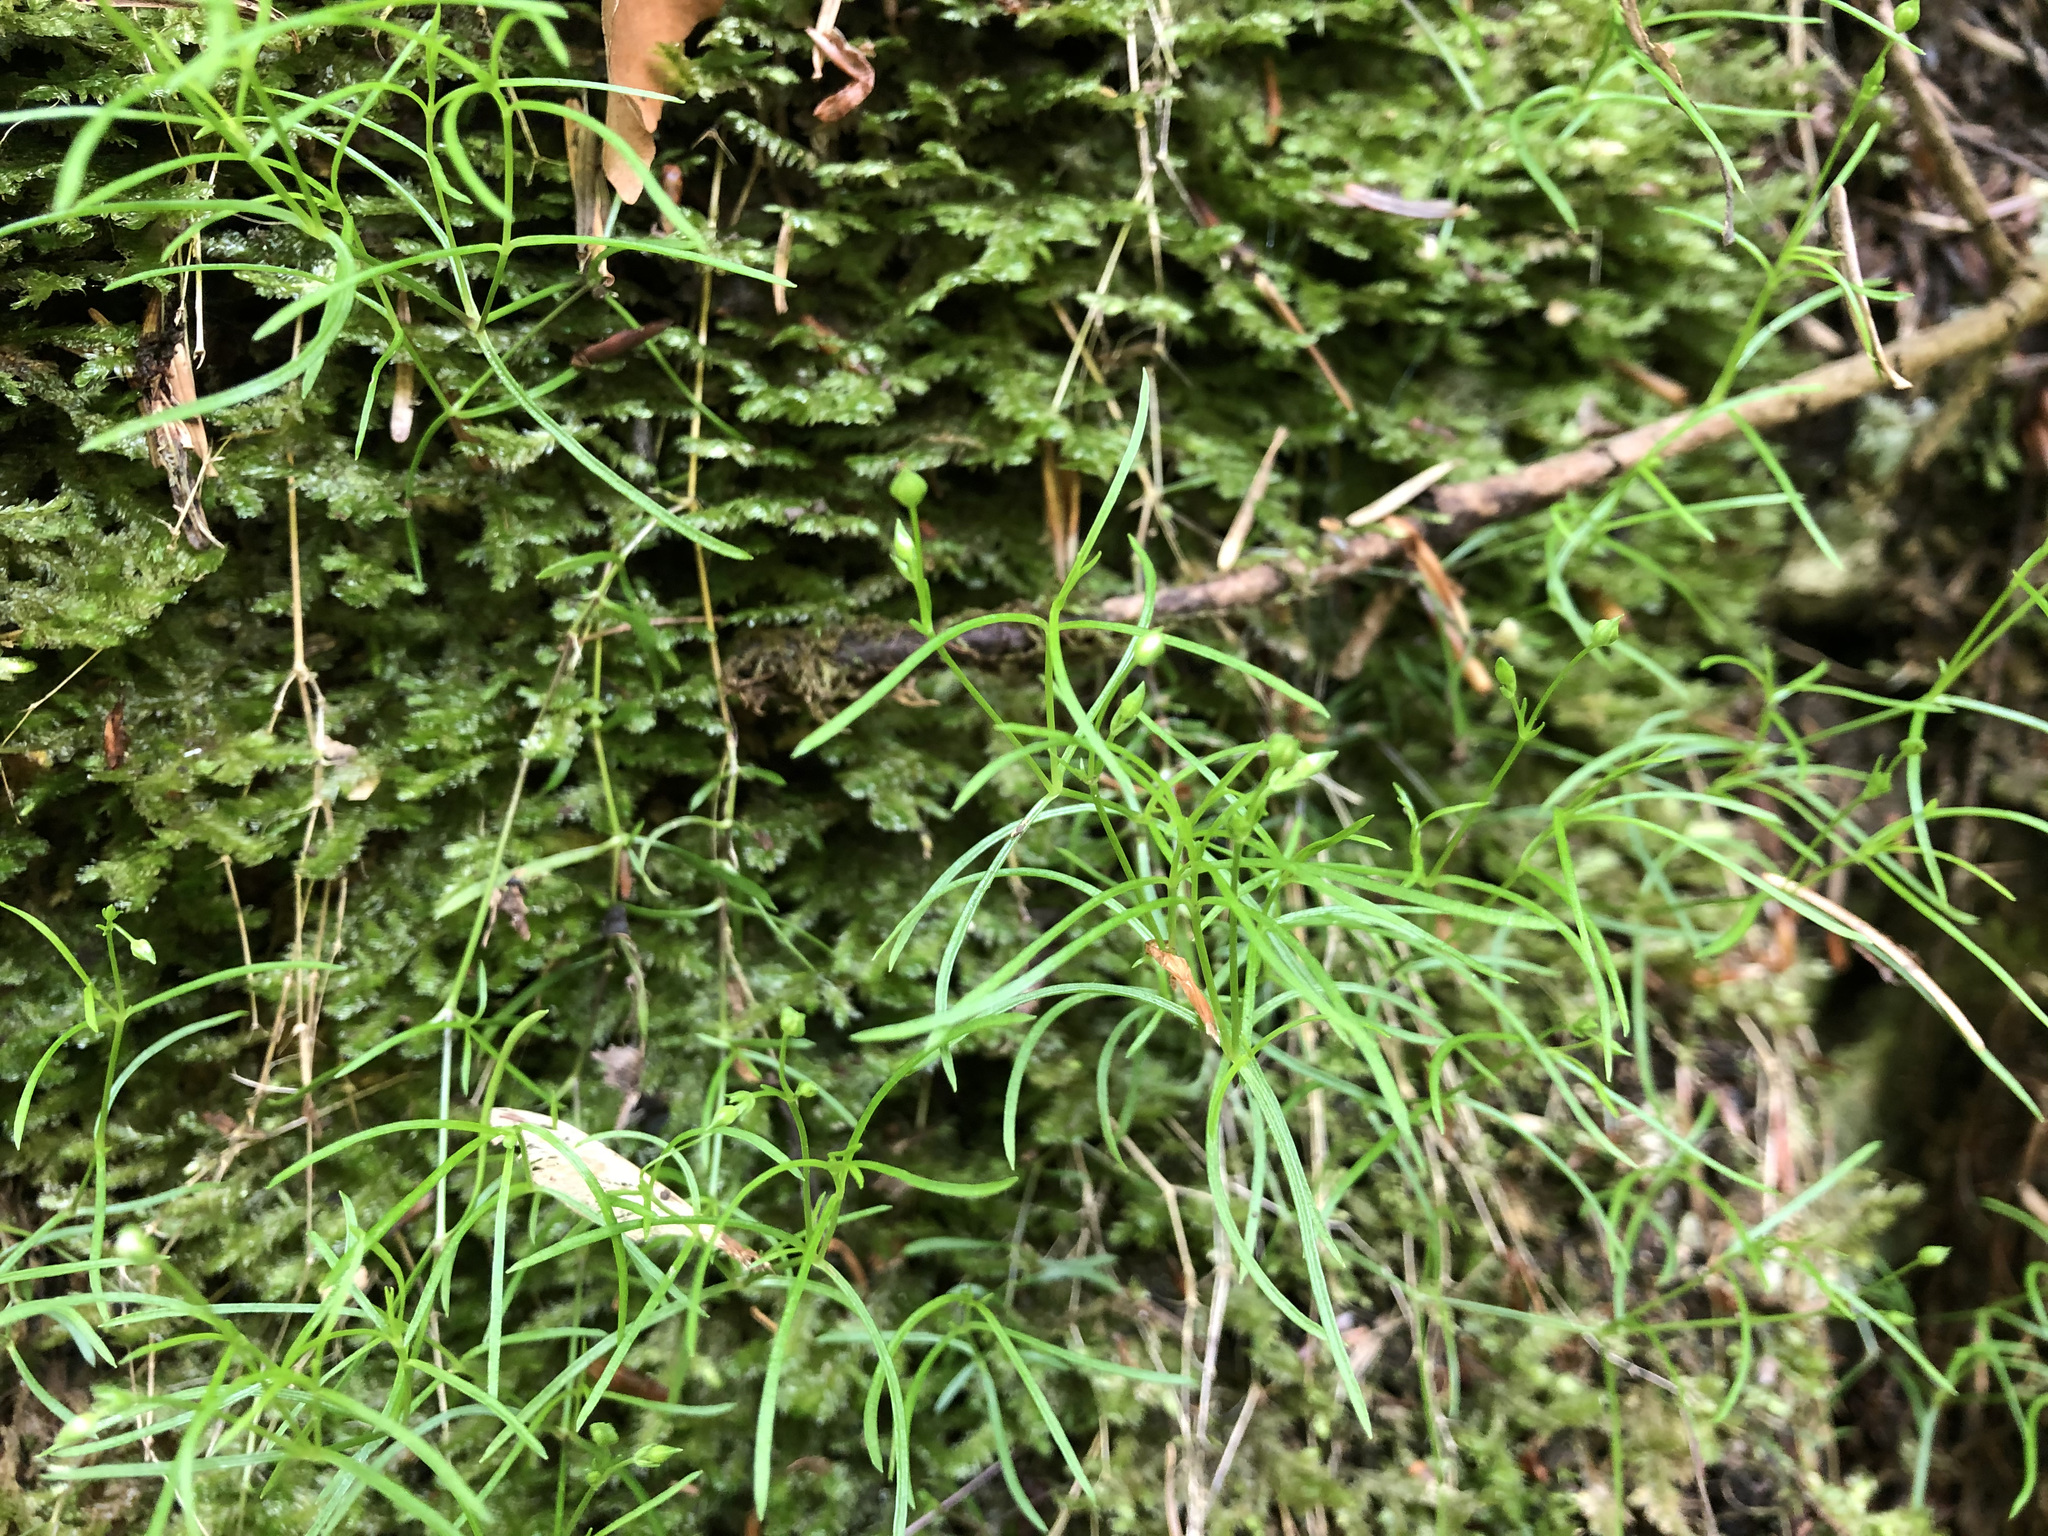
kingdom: Plantae
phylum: Tracheophyta
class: Magnoliopsida
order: Caryophyllales
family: Caryophyllaceae
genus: Moehringia
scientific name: Moehringia muscosa
